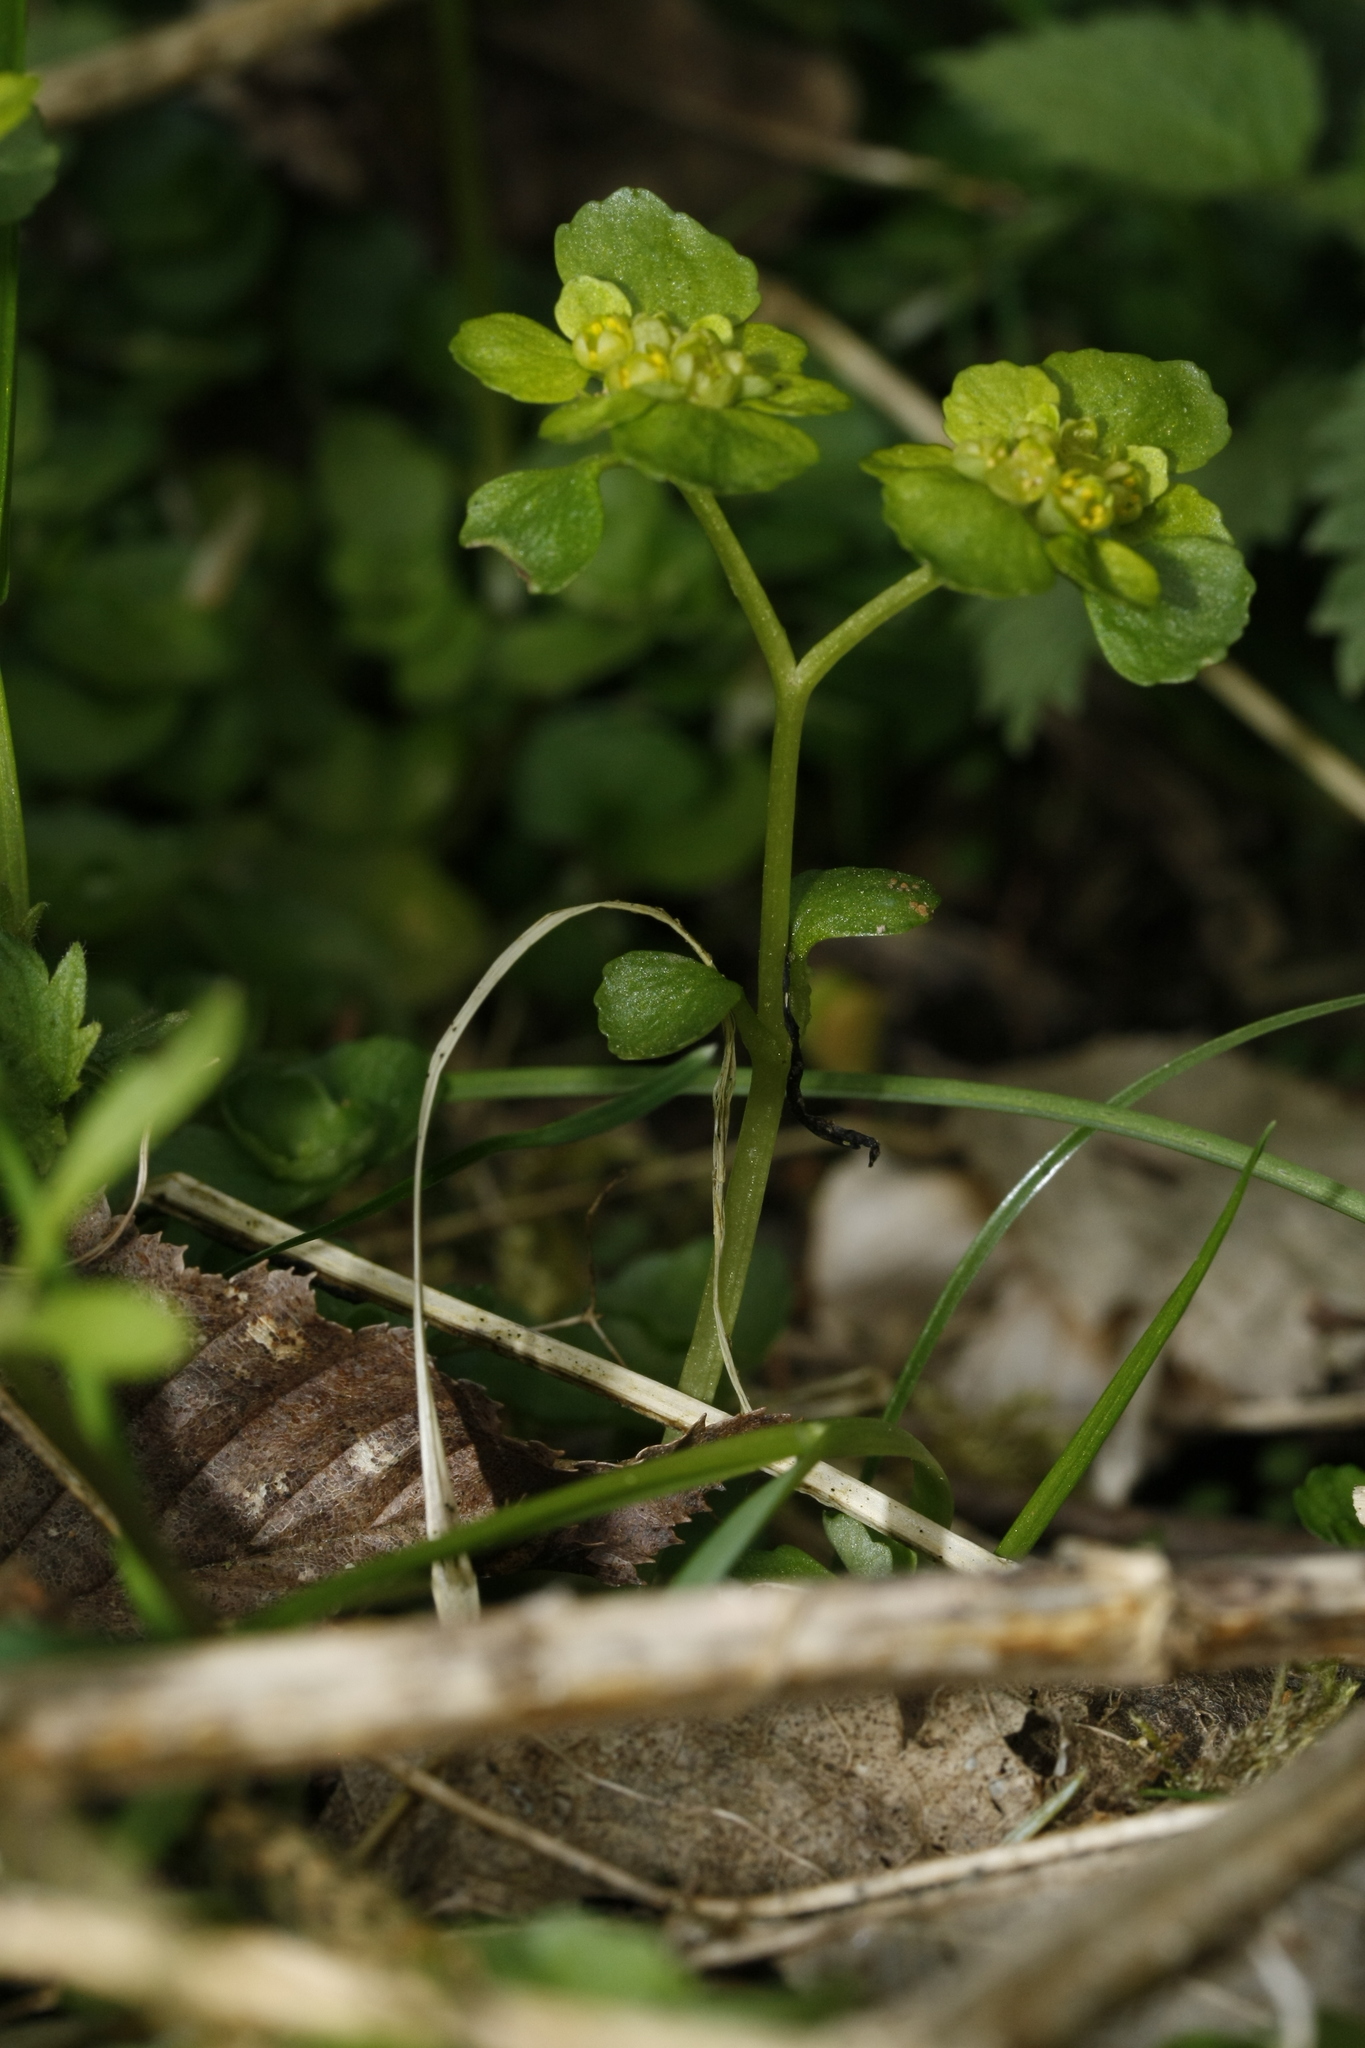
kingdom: Plantae
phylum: Tracheophyta
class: Magnoliopsida
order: Saxifragales
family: Saxifragaceae
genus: Chrysosplenium
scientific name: Chrysosplenium oppositifolium
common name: Opposite-leaved golden-saxifrage
